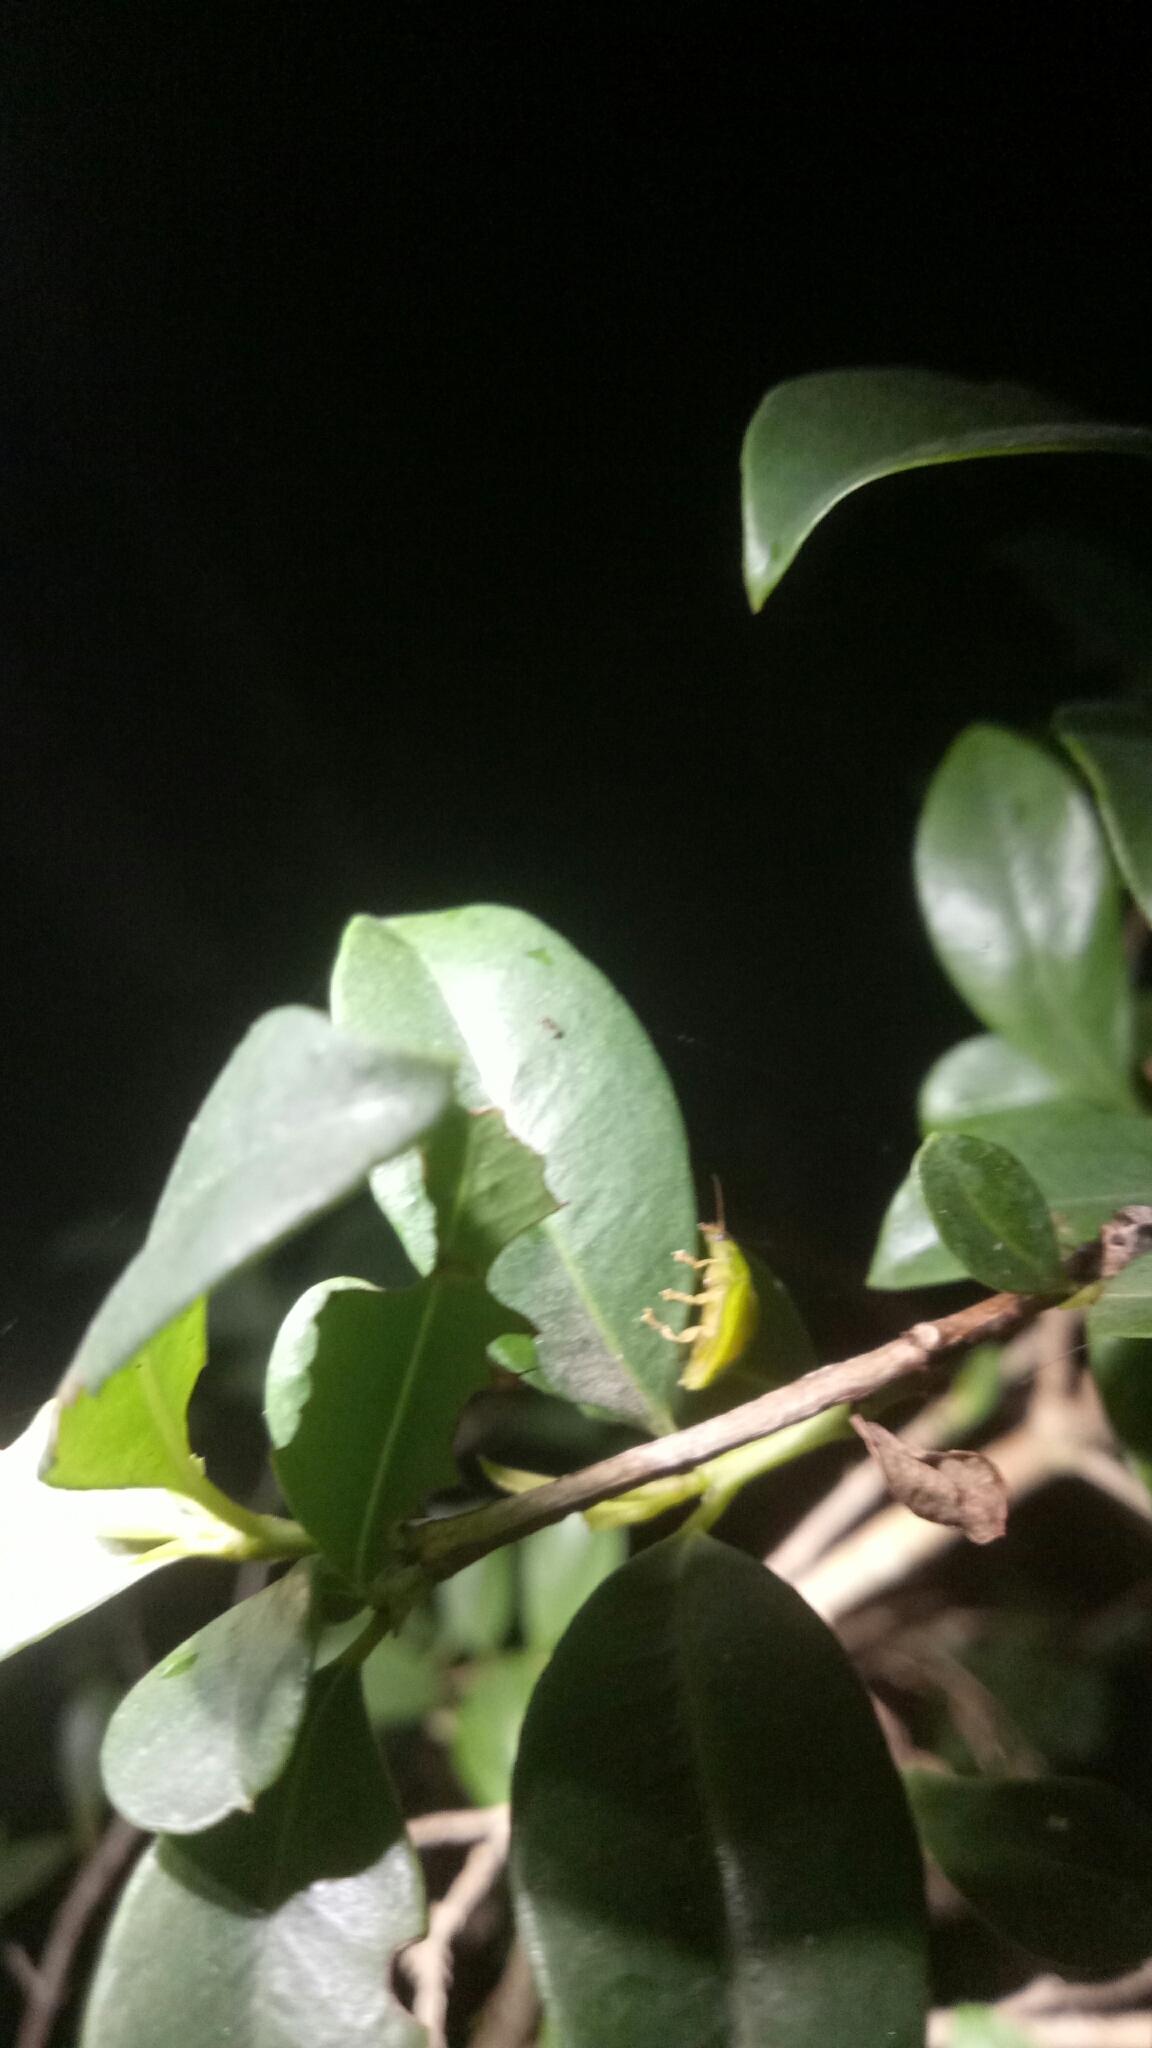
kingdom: Animalia
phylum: Arthropoda
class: Insecta
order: Coleoptera
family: Chrysomelidae
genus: Paropsides
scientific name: Paropsides
